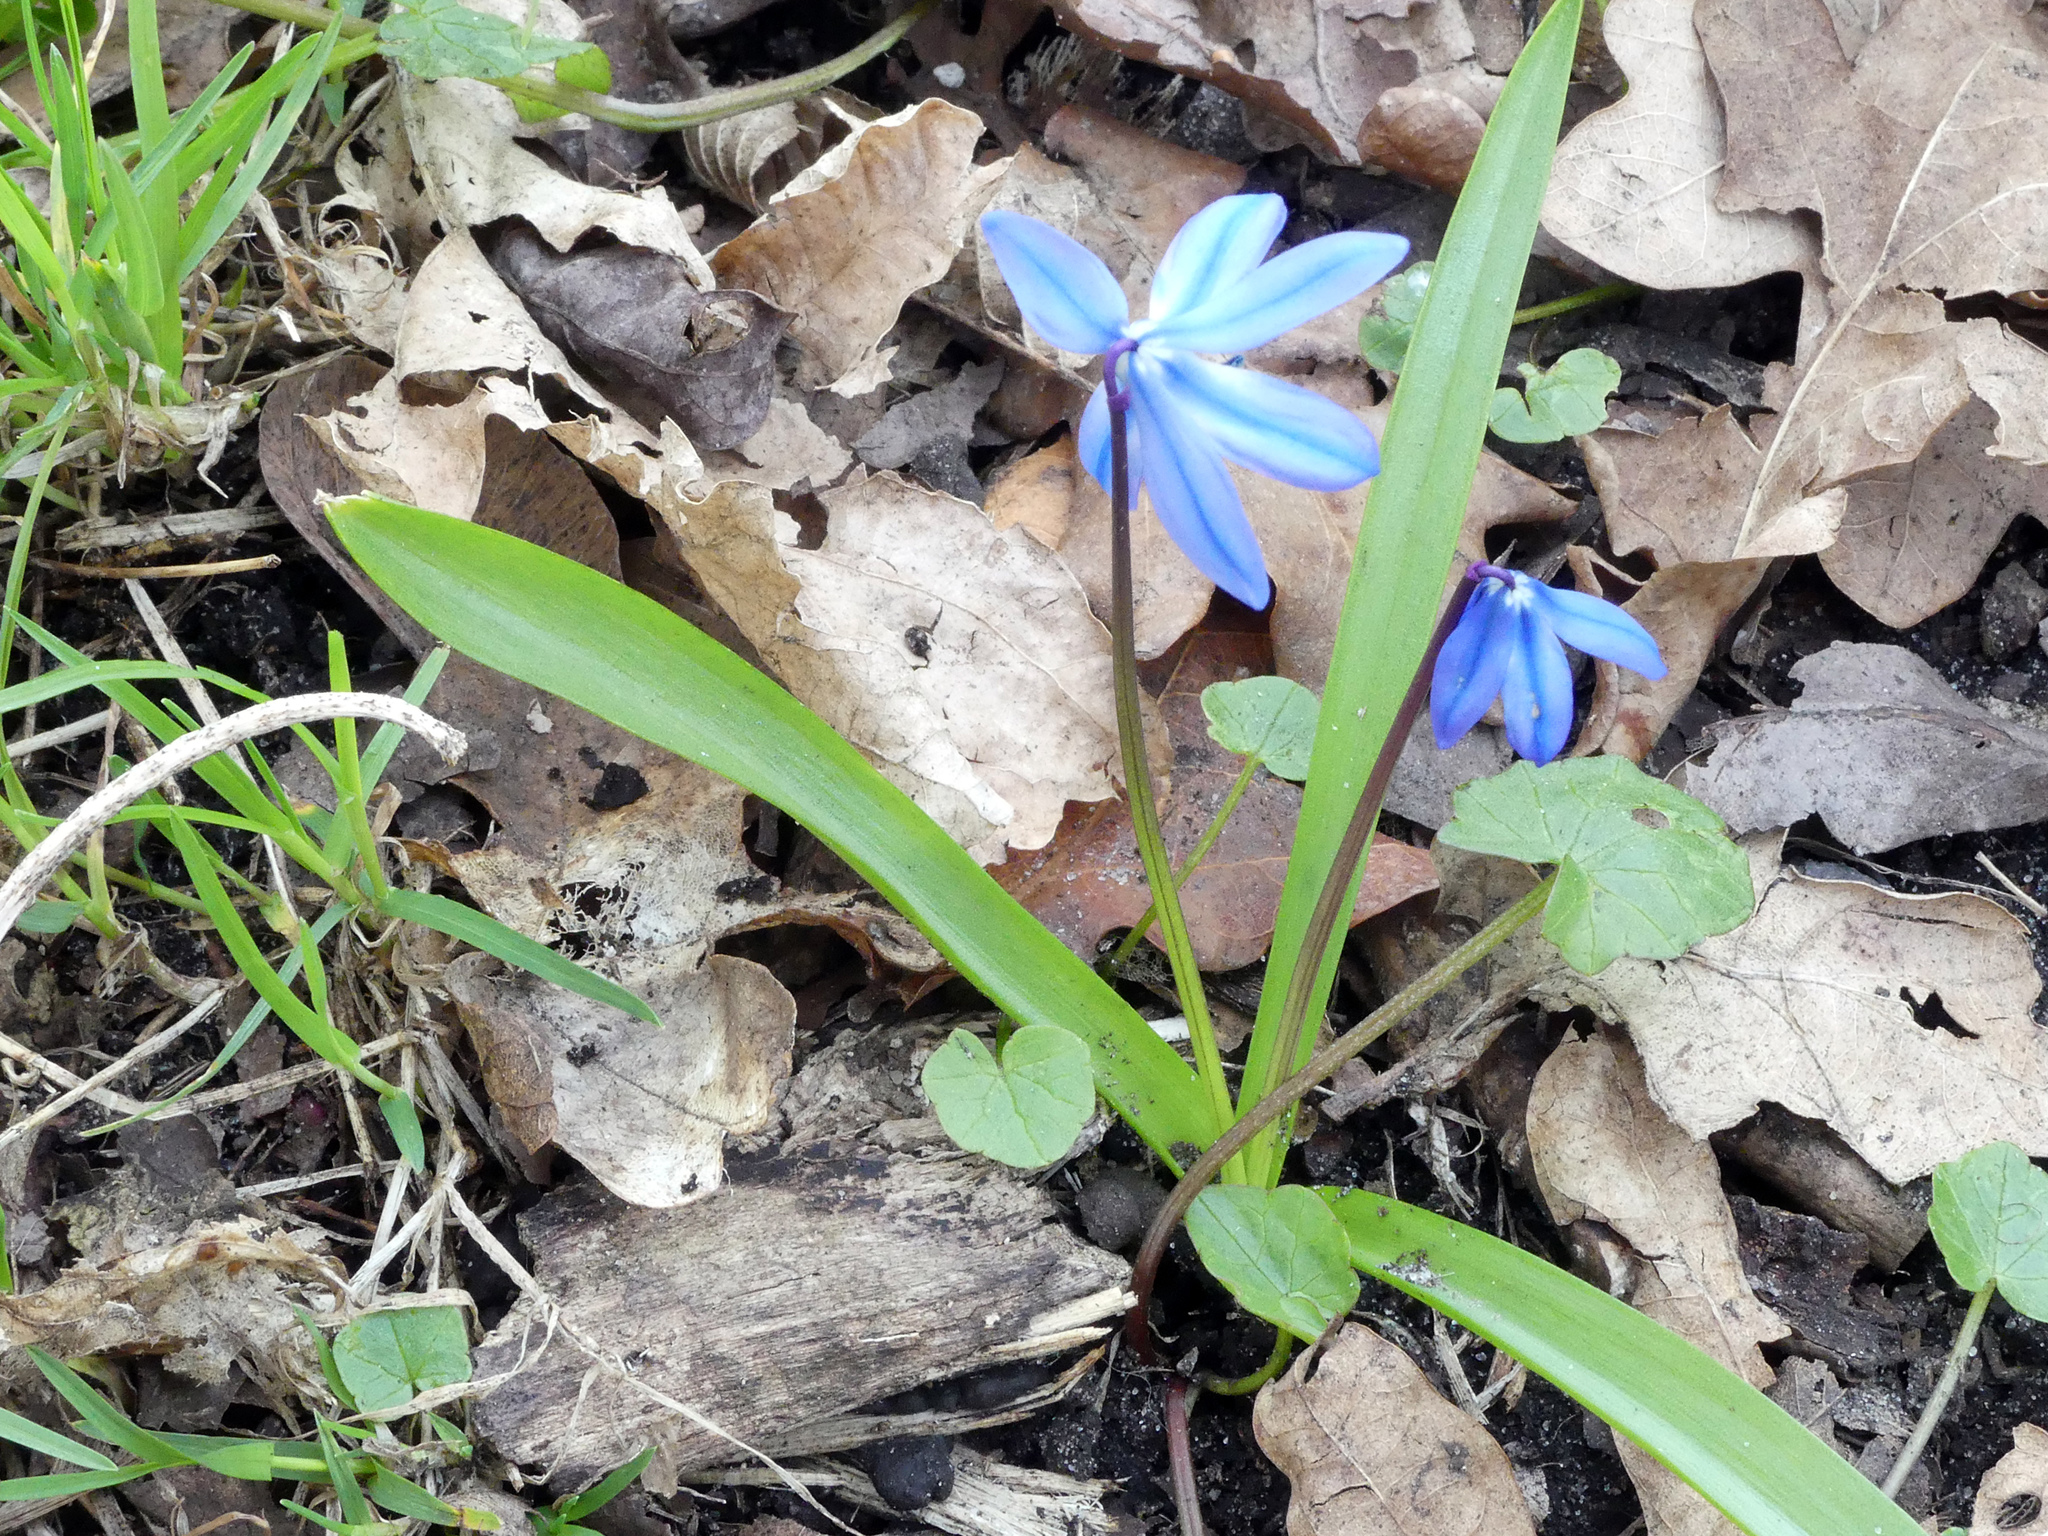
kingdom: Plantae
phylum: Tracheophyta
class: Liliopsida
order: Asparagales
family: Asparagaceae
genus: Scilla
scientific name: Scilla siberica
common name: Siberian squill
